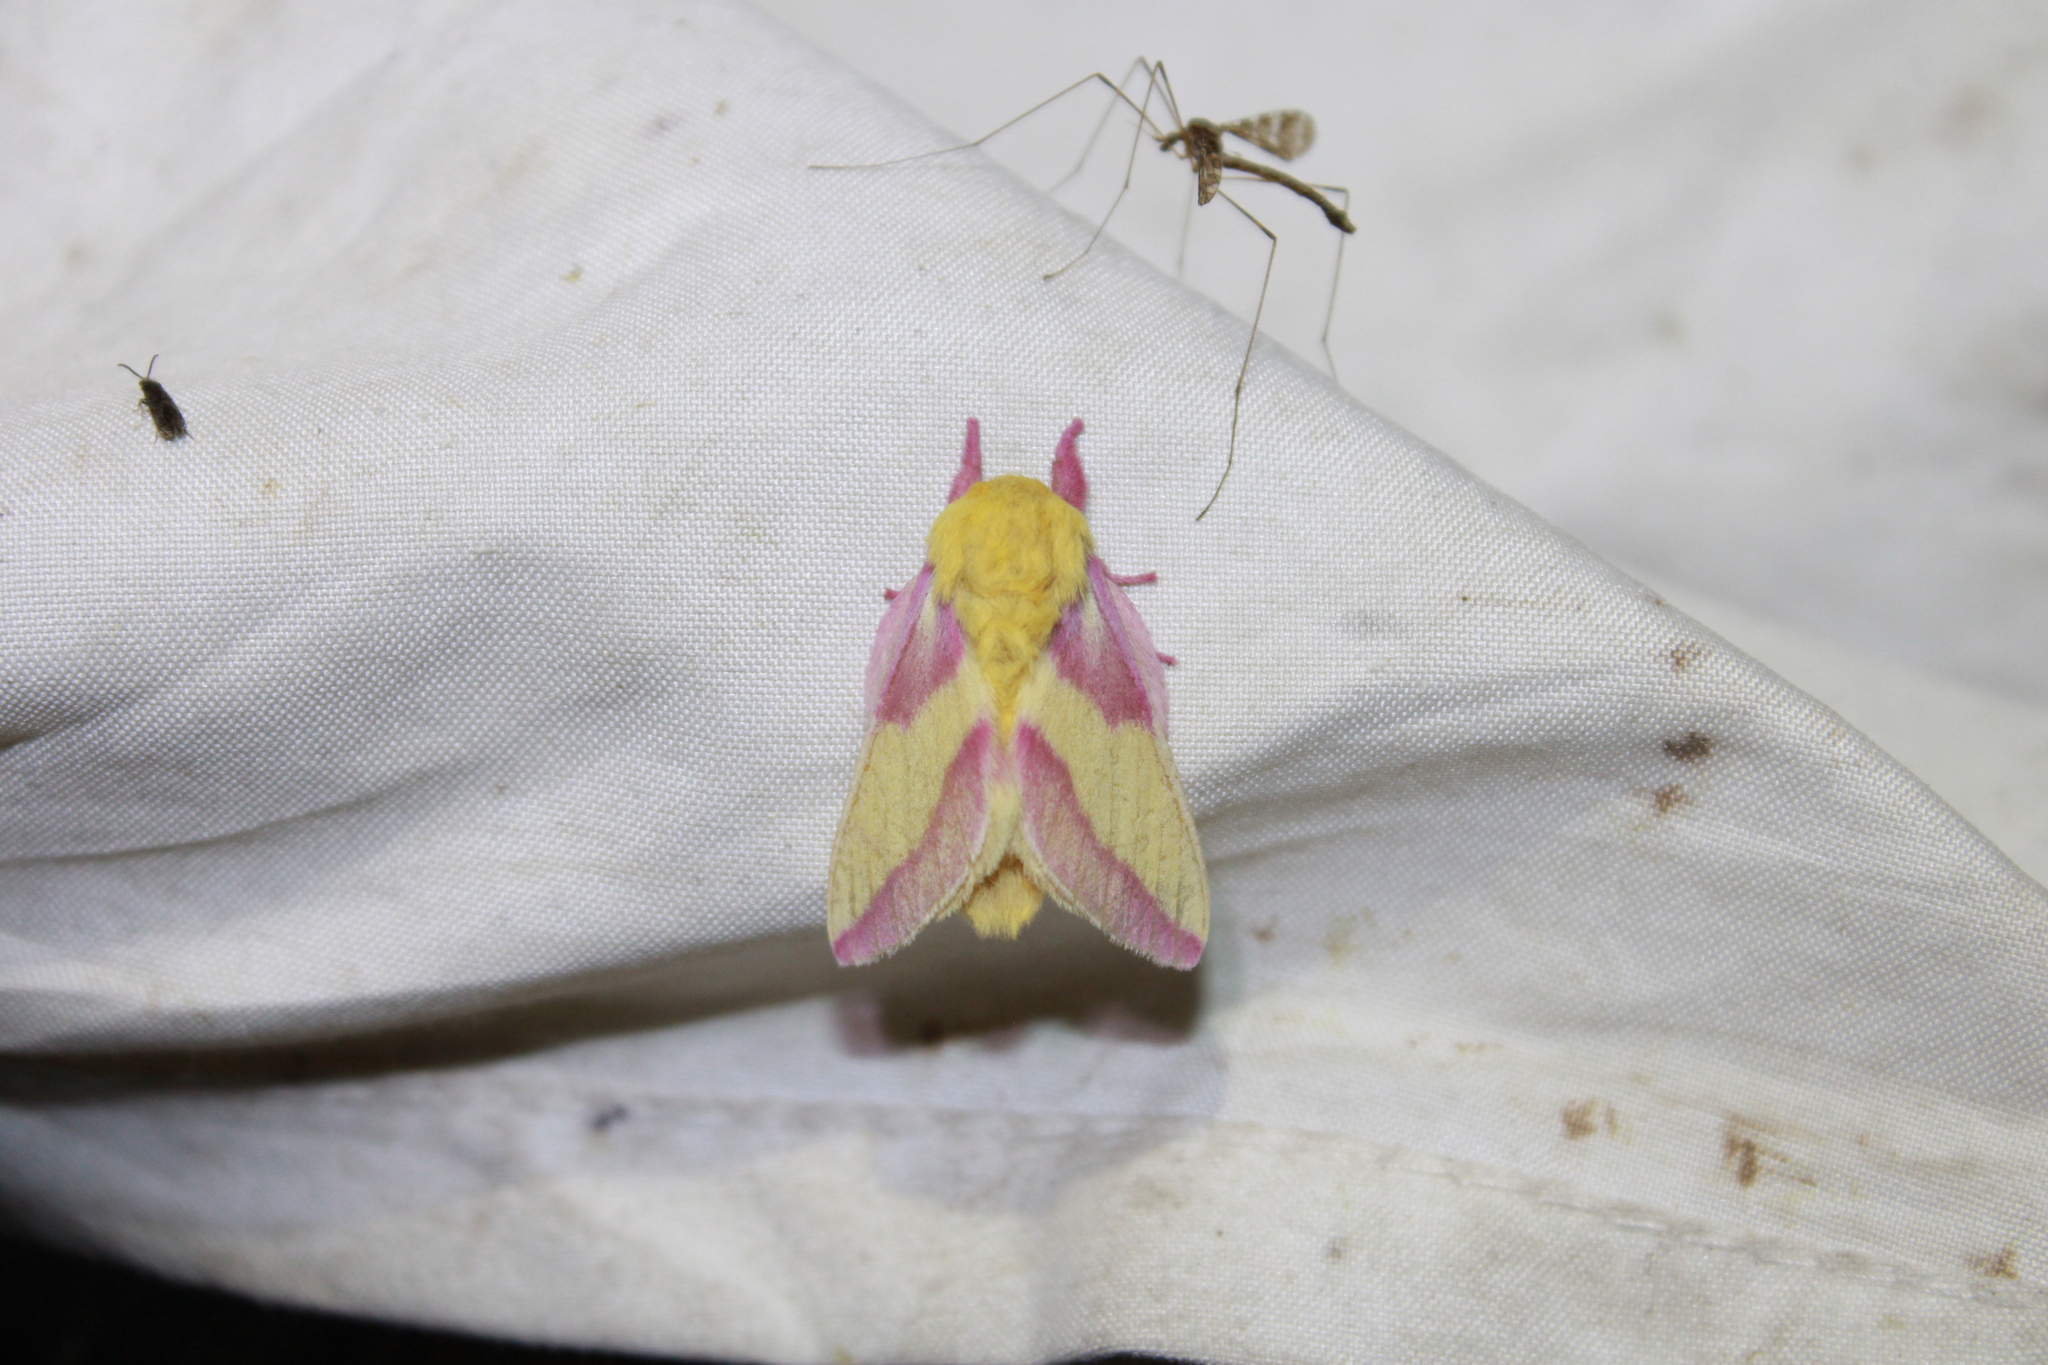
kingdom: Animalia
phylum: Arthropoda
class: Insecta
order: Lepidoptera
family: Saturniidae
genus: Dryocampa
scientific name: Dryocampa rubicunda
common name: Rosy maple moth
